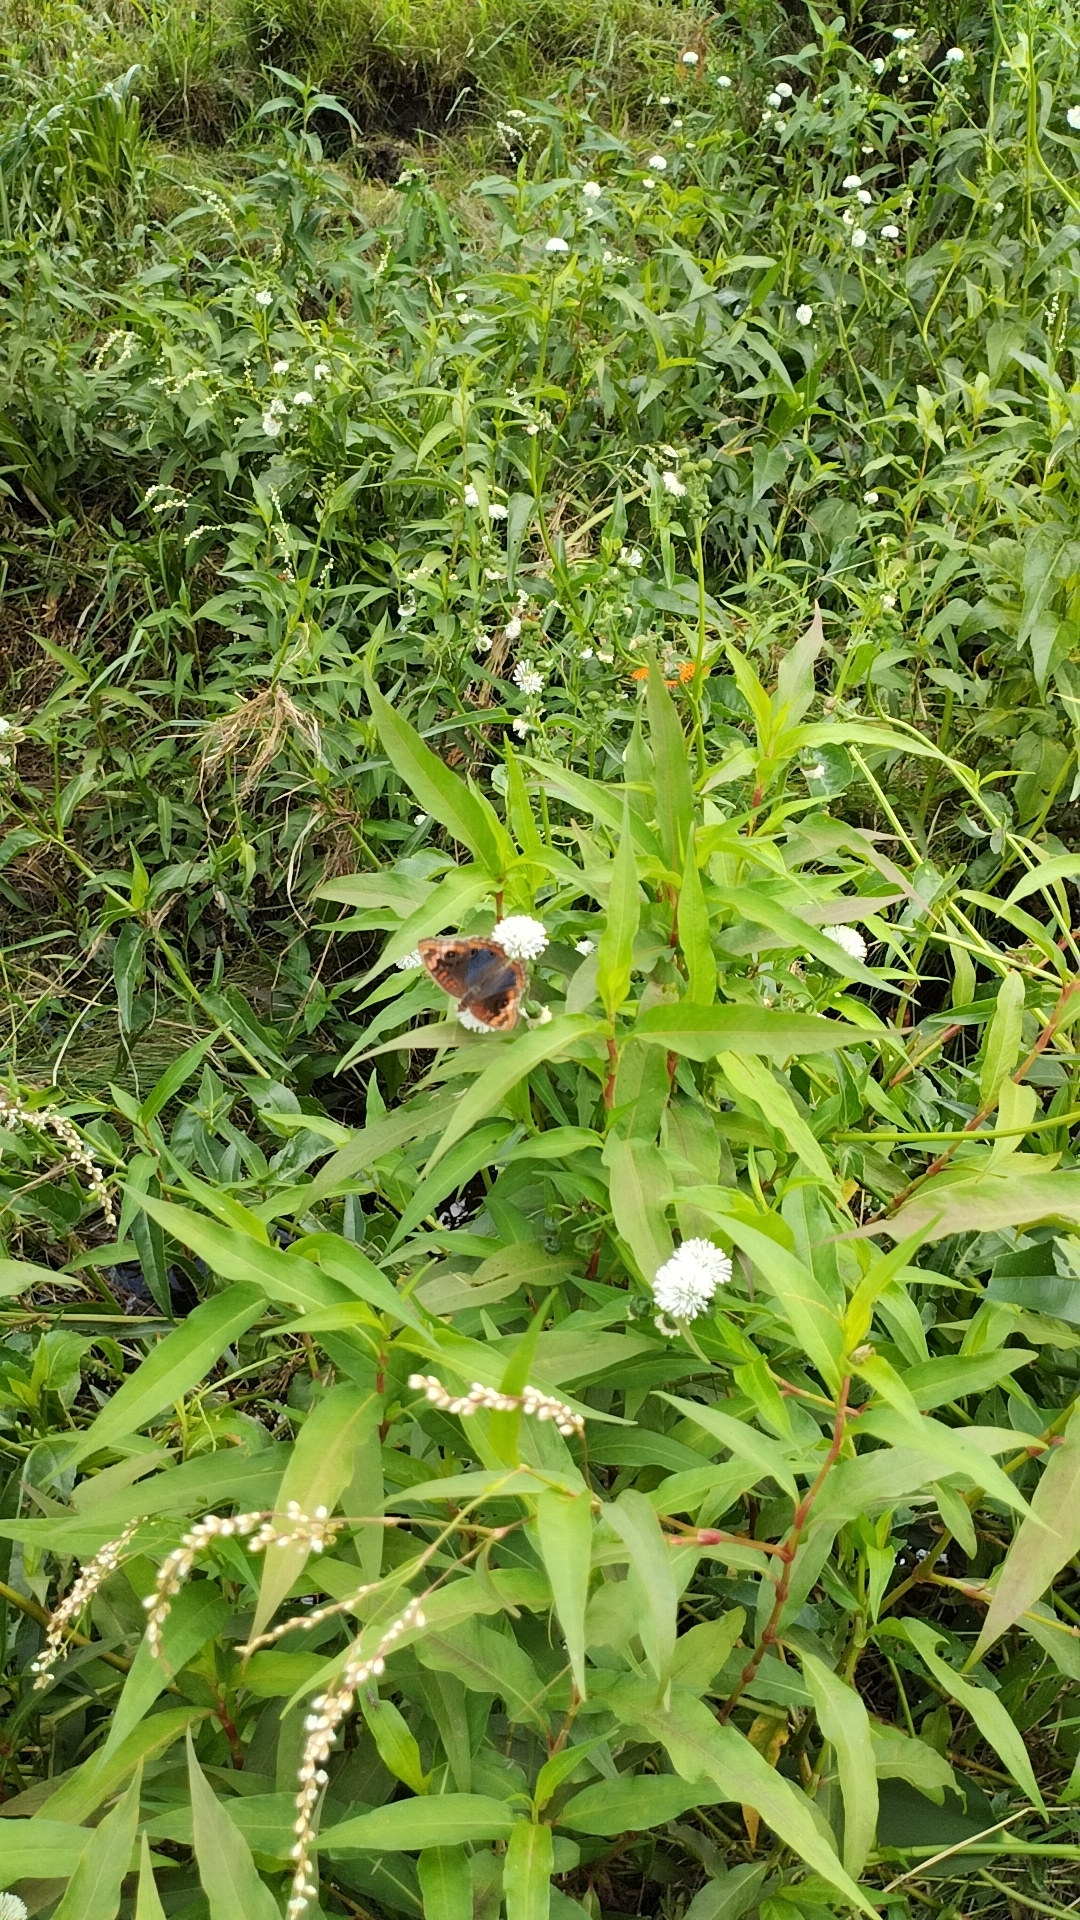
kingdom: Animalia
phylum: Arthropoda
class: Insecta
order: Lepidoptera
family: Nymphalidae
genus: Junonia
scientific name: Junonia lavinia
